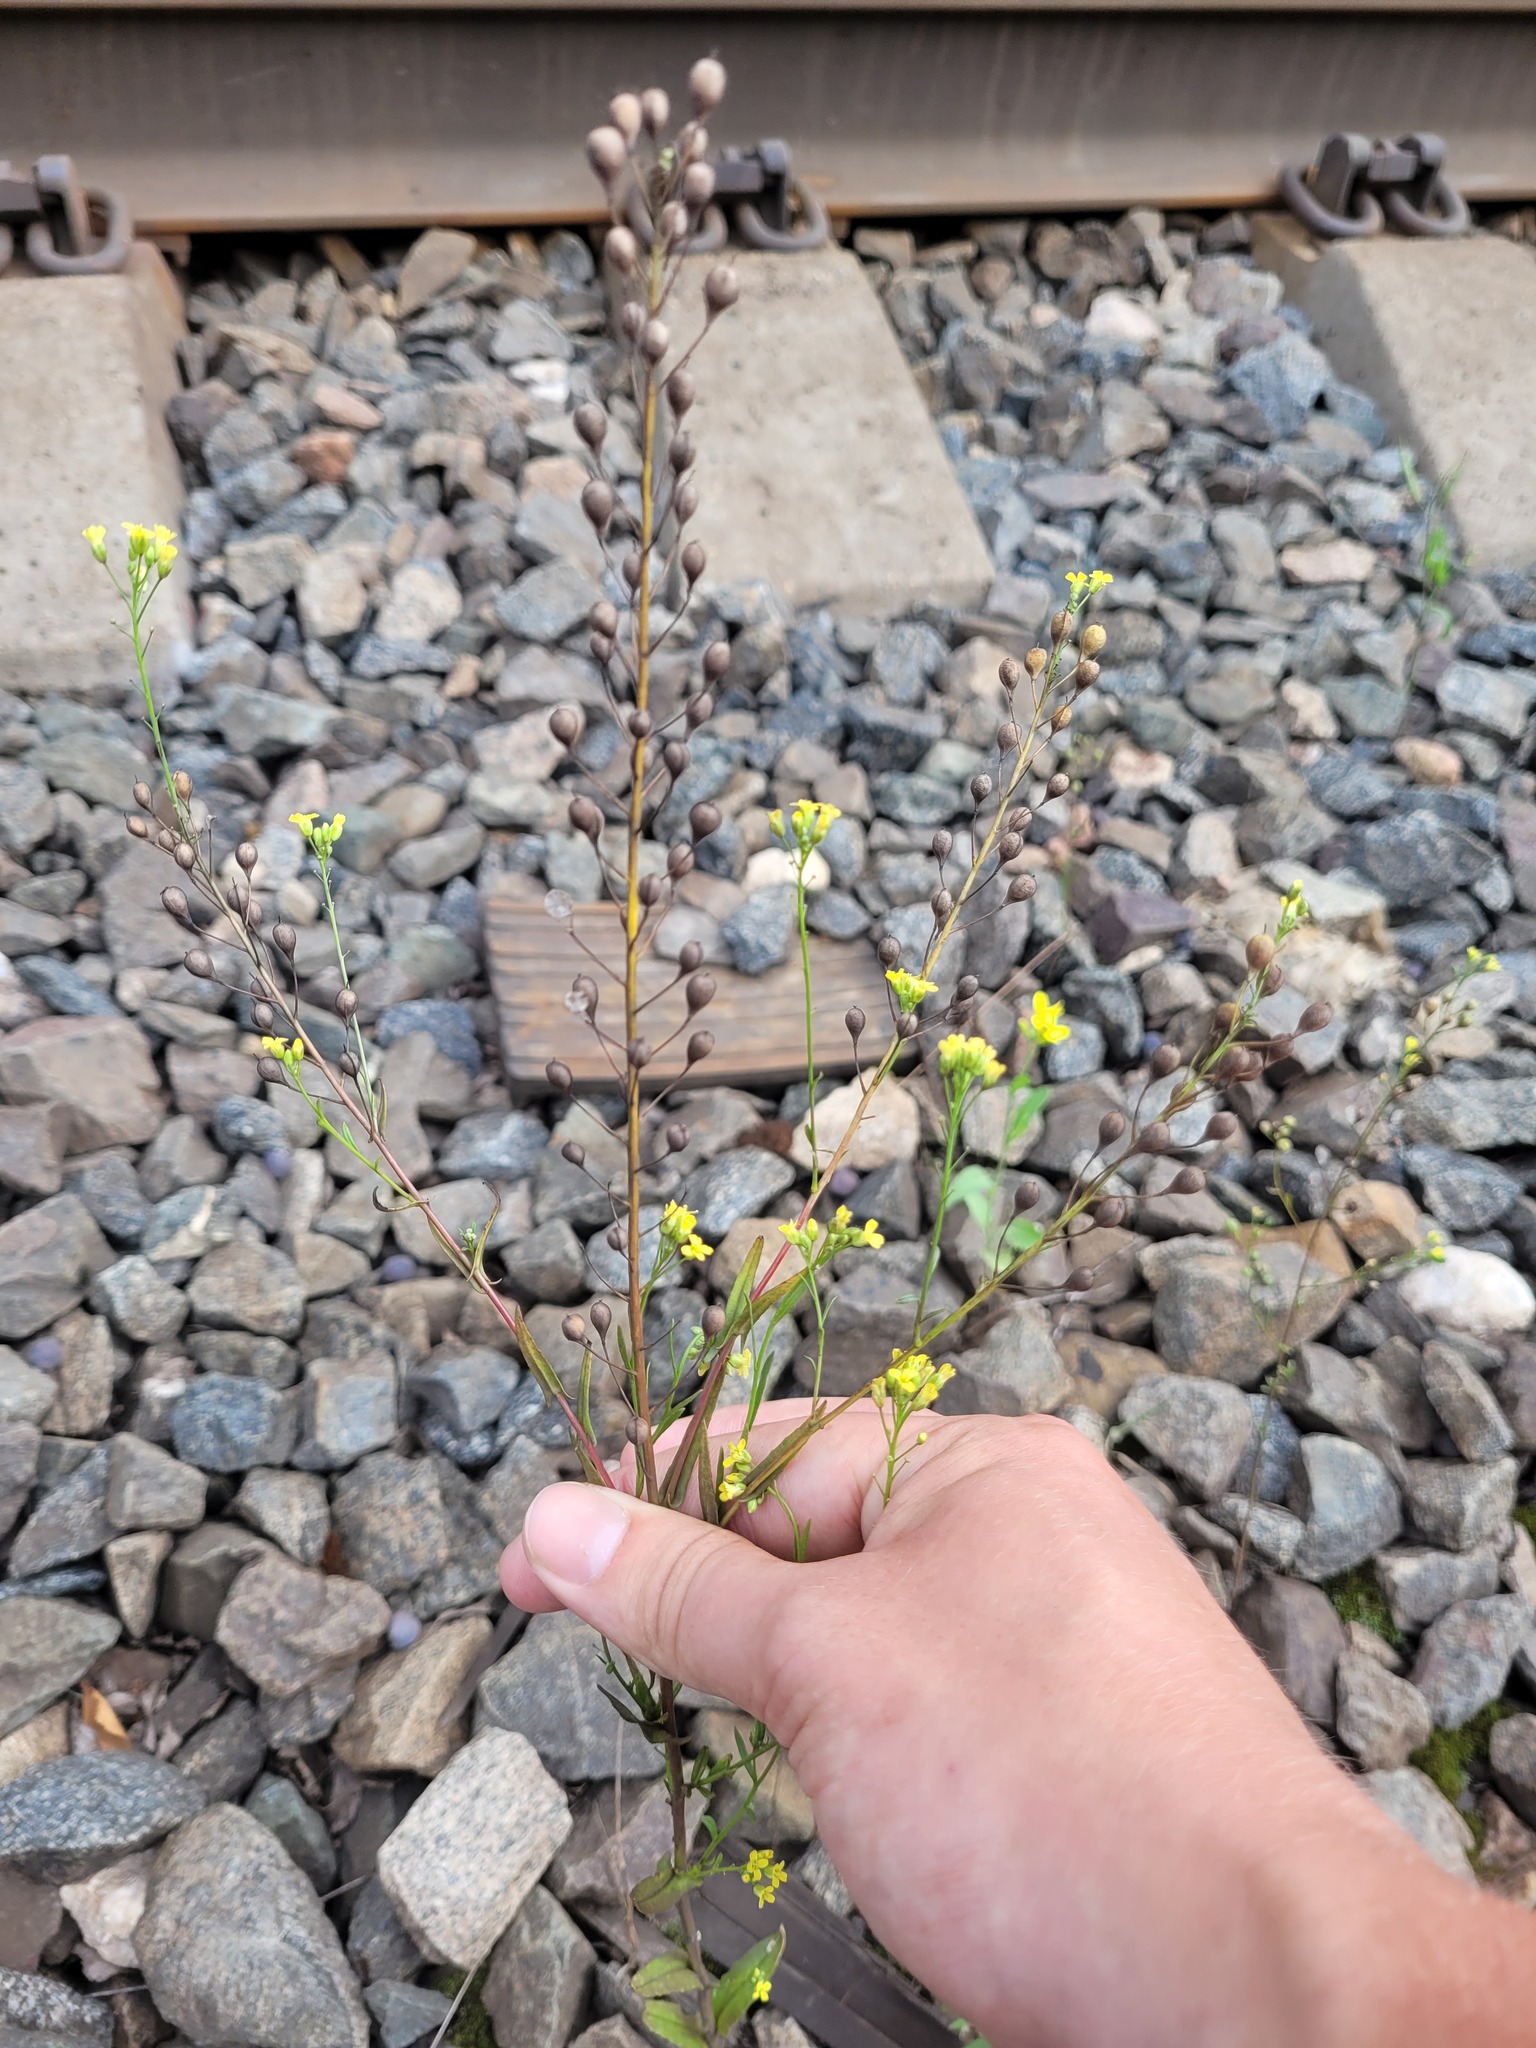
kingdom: Plantae
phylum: Tracheophyta
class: Magnoliopsida
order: Brassicales
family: Brassicaceae
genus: Camelina
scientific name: Camelina sativa
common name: Gold-of-pleasure
